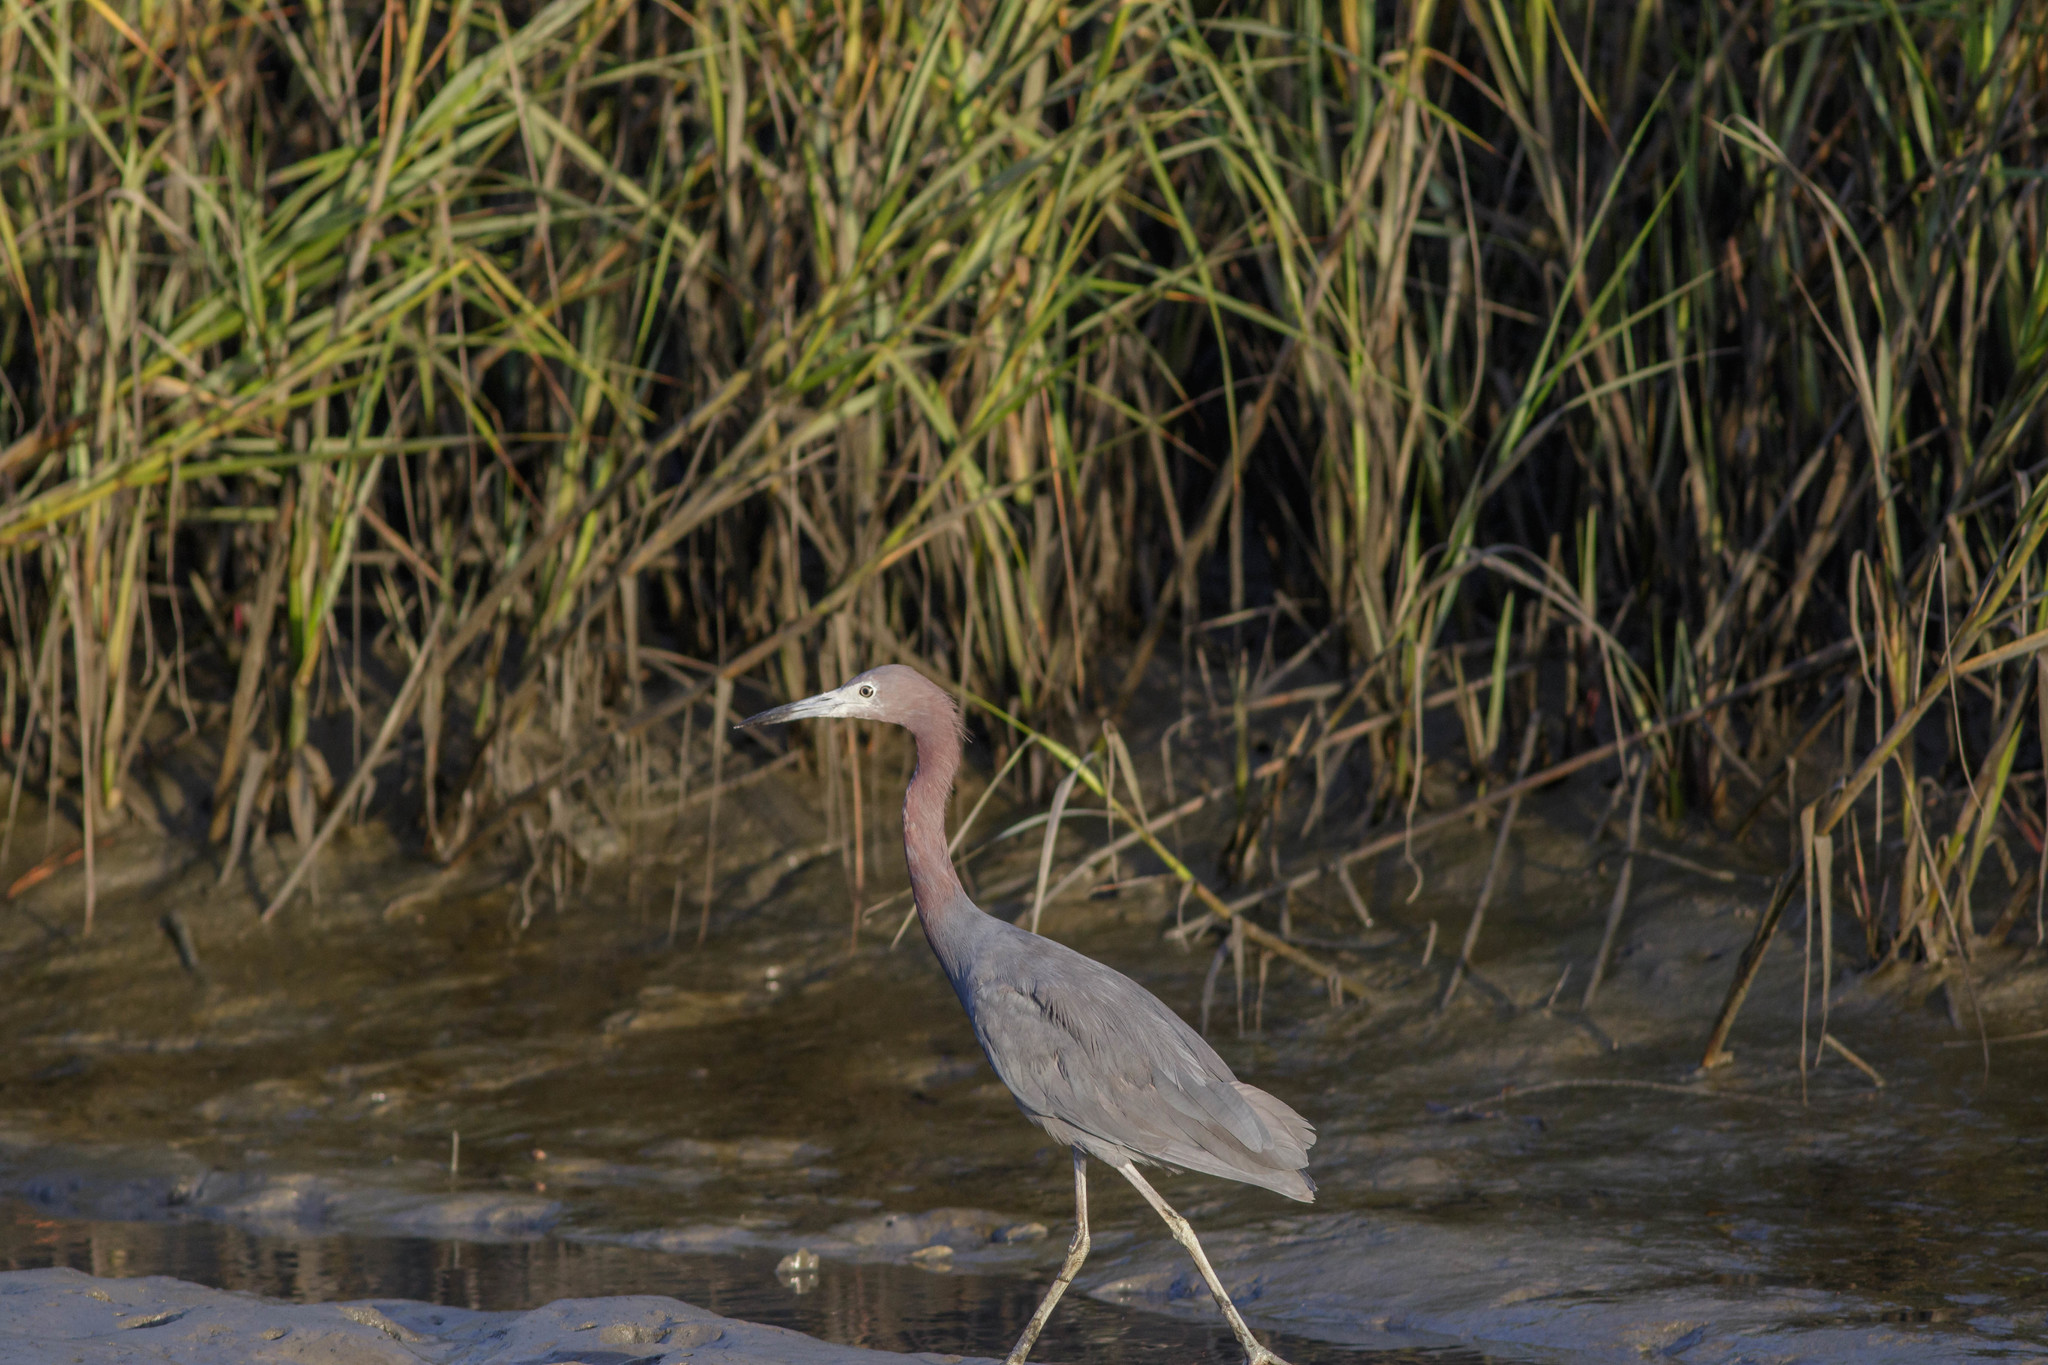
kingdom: Animalia
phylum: Chordata
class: Aves
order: Pelecaniformes
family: Ardeidae
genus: Egretta
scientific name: Egretta caerulea
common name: Little blue heron
